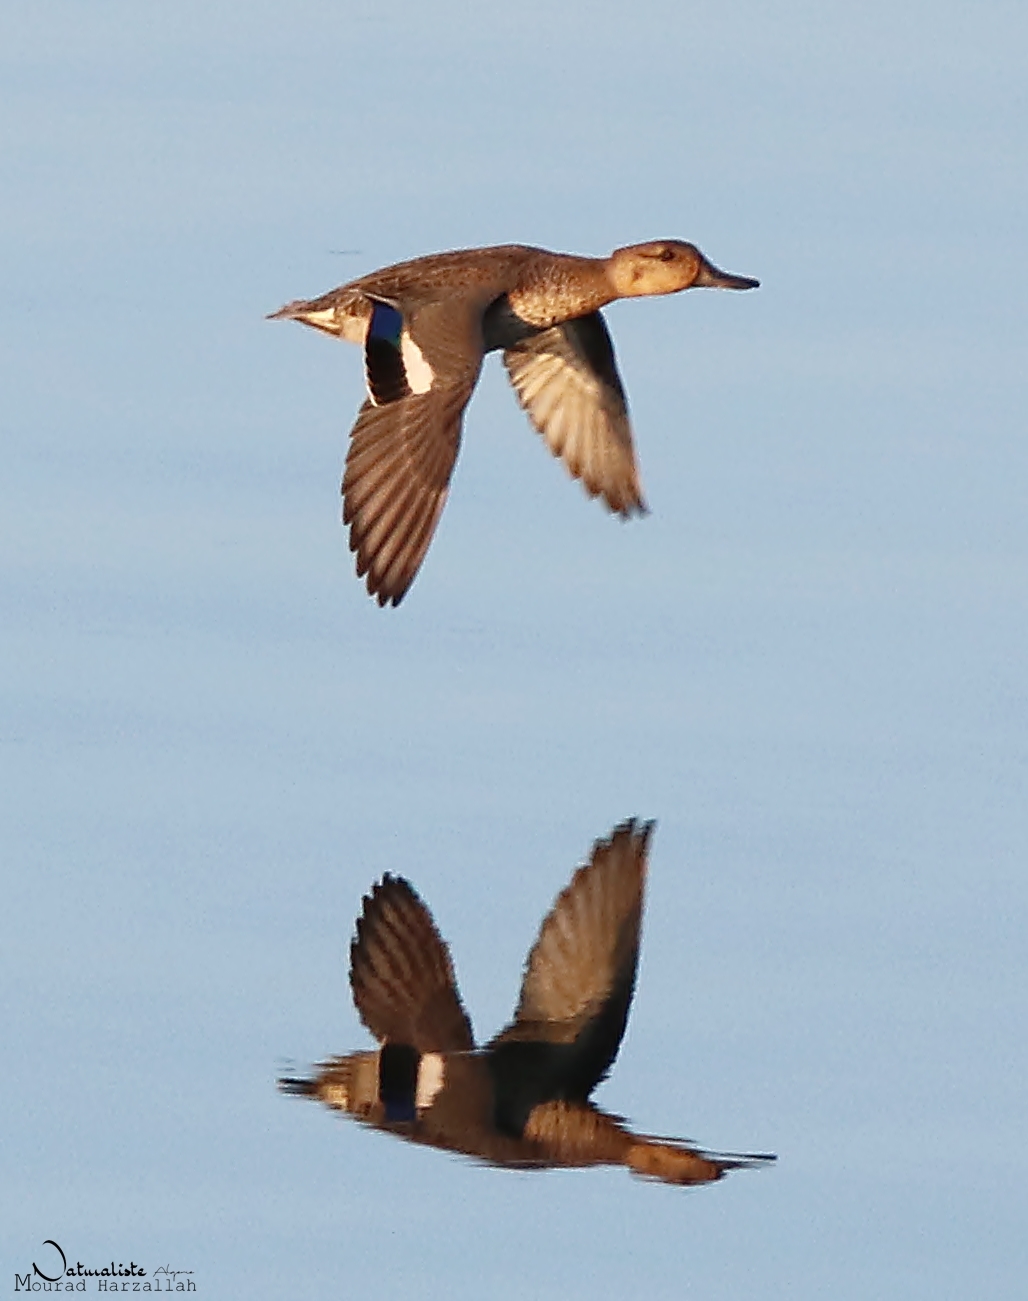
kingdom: Animalia
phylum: Chordata
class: Aves
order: Anseriformes
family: Anatidae
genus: Anas
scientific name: Anas crecca
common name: Eurasian teal
